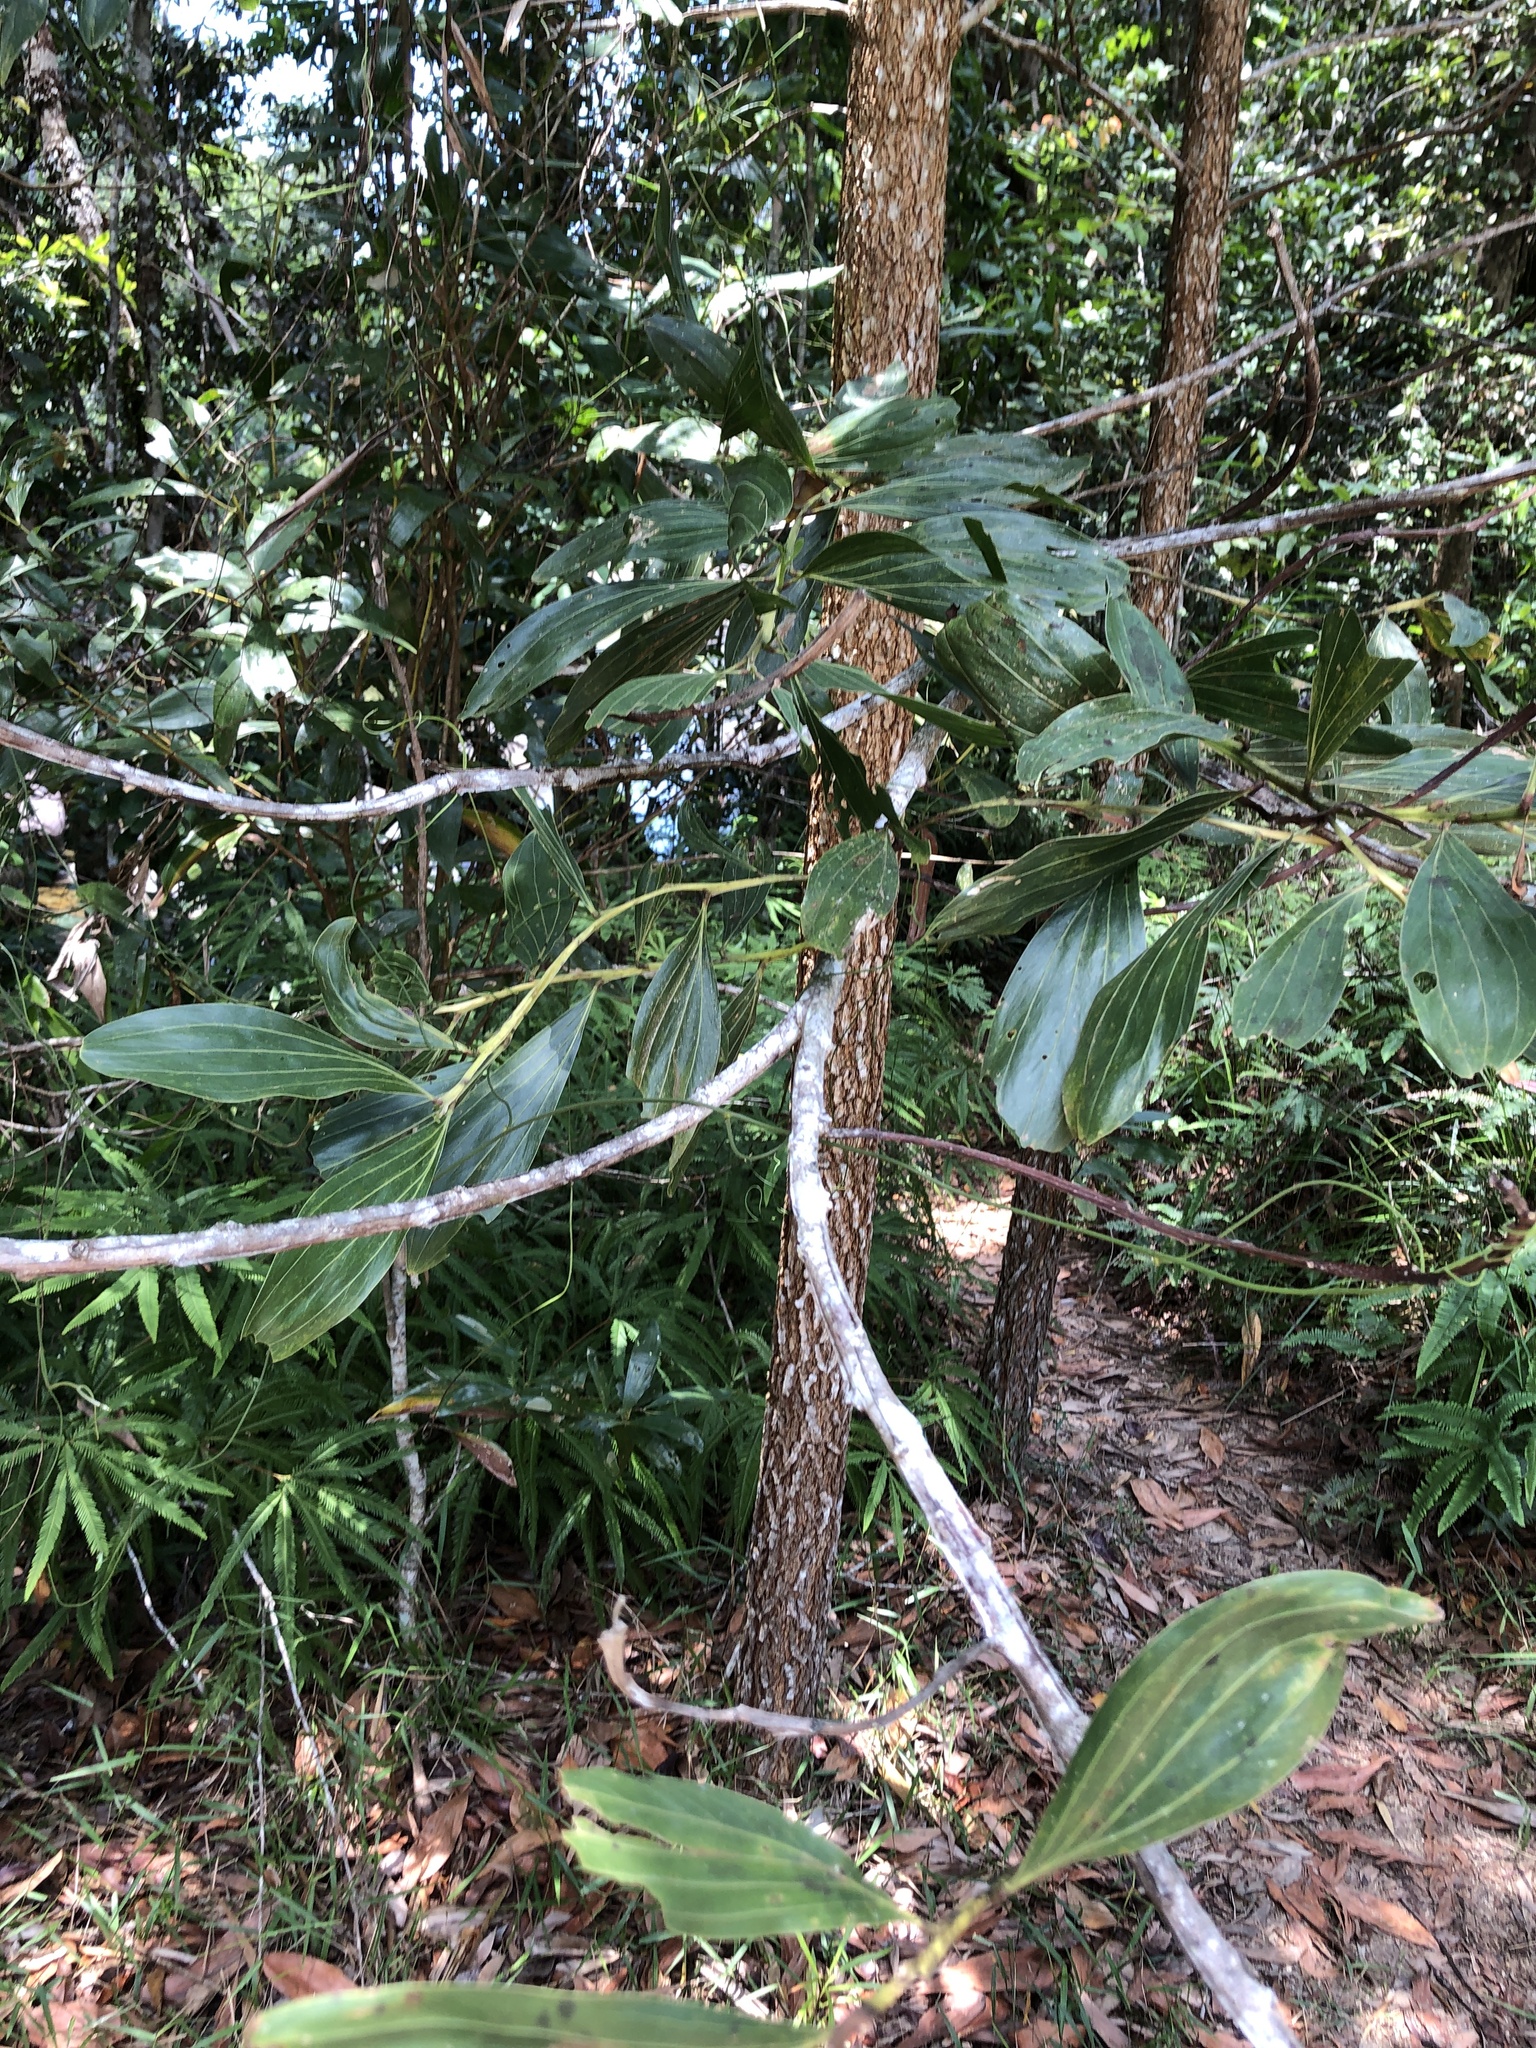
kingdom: Plantae
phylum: Tracheophyta
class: Magnoliopsida
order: Fabales
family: Fabaceae
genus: Acacia
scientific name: Acacia mangium
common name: Black wattle
